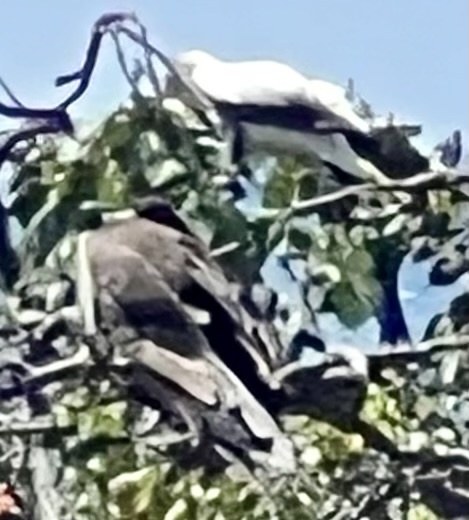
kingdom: Animalia
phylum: Chordata
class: Aves
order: Suliformes
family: Sulidae
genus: Sula
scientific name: Sula sula
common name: Red-footed booby
